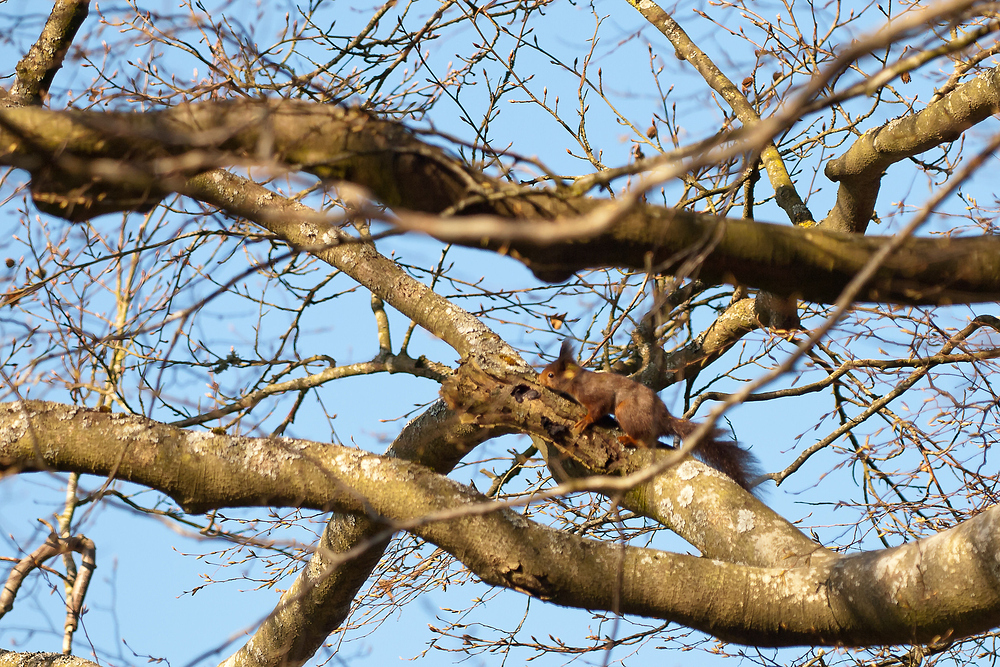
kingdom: Animalia
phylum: Chordata
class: Mammalia
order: Rodentia
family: Sciuridae
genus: Sciurus
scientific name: Sciurus vulgaris
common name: Eurasian red squirrel
